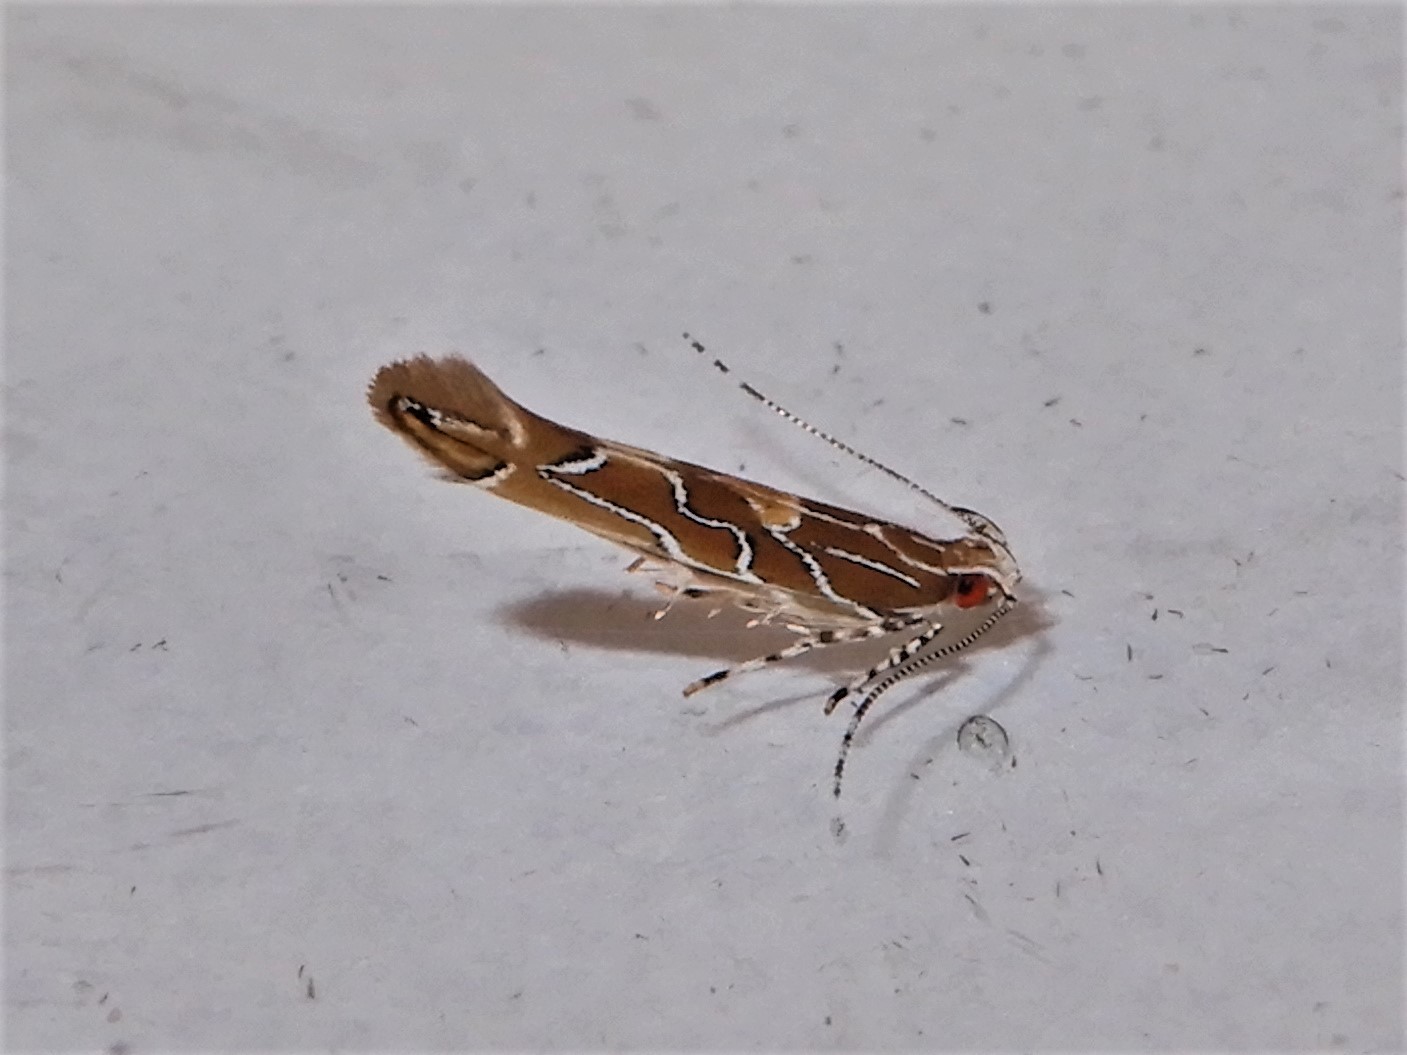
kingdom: Animalia
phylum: Arthropoda
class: Insecta
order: Lepidoptera
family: Cosmopterigidae
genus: Pyroderces
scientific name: Pyroderces apparitella
